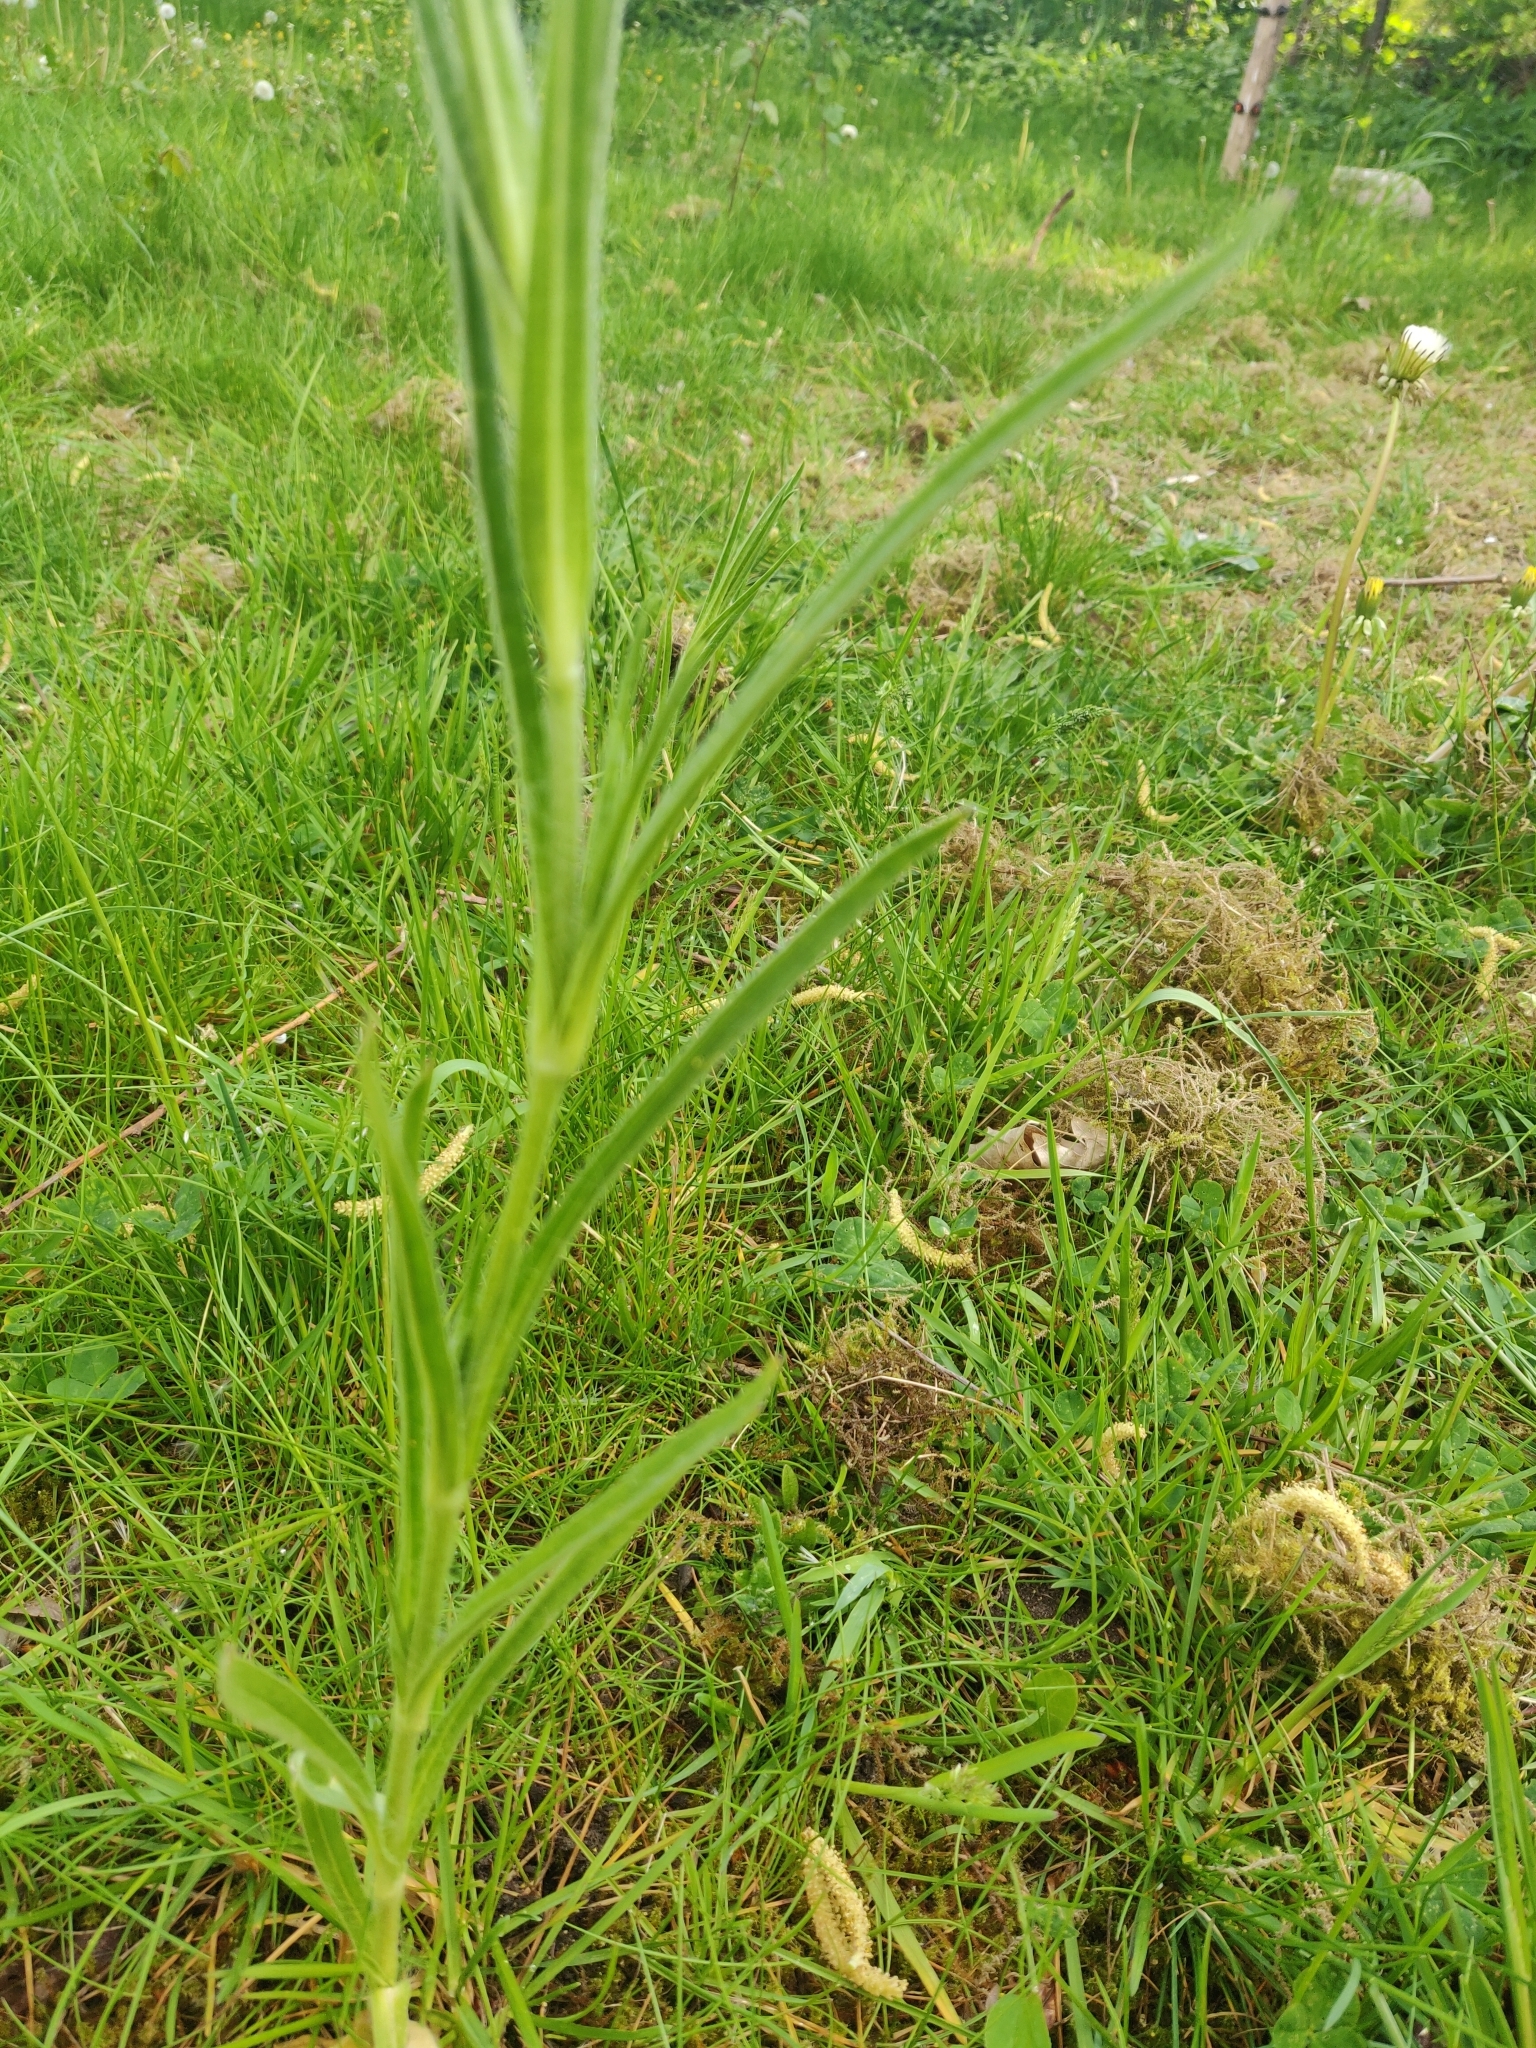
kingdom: Plantae
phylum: Tracheophyta
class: Magnoliopsida
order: Caryophyllales
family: Caryophyllaceae
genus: Agrostemma
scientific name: Agrostemma githago
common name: Common corncockle
